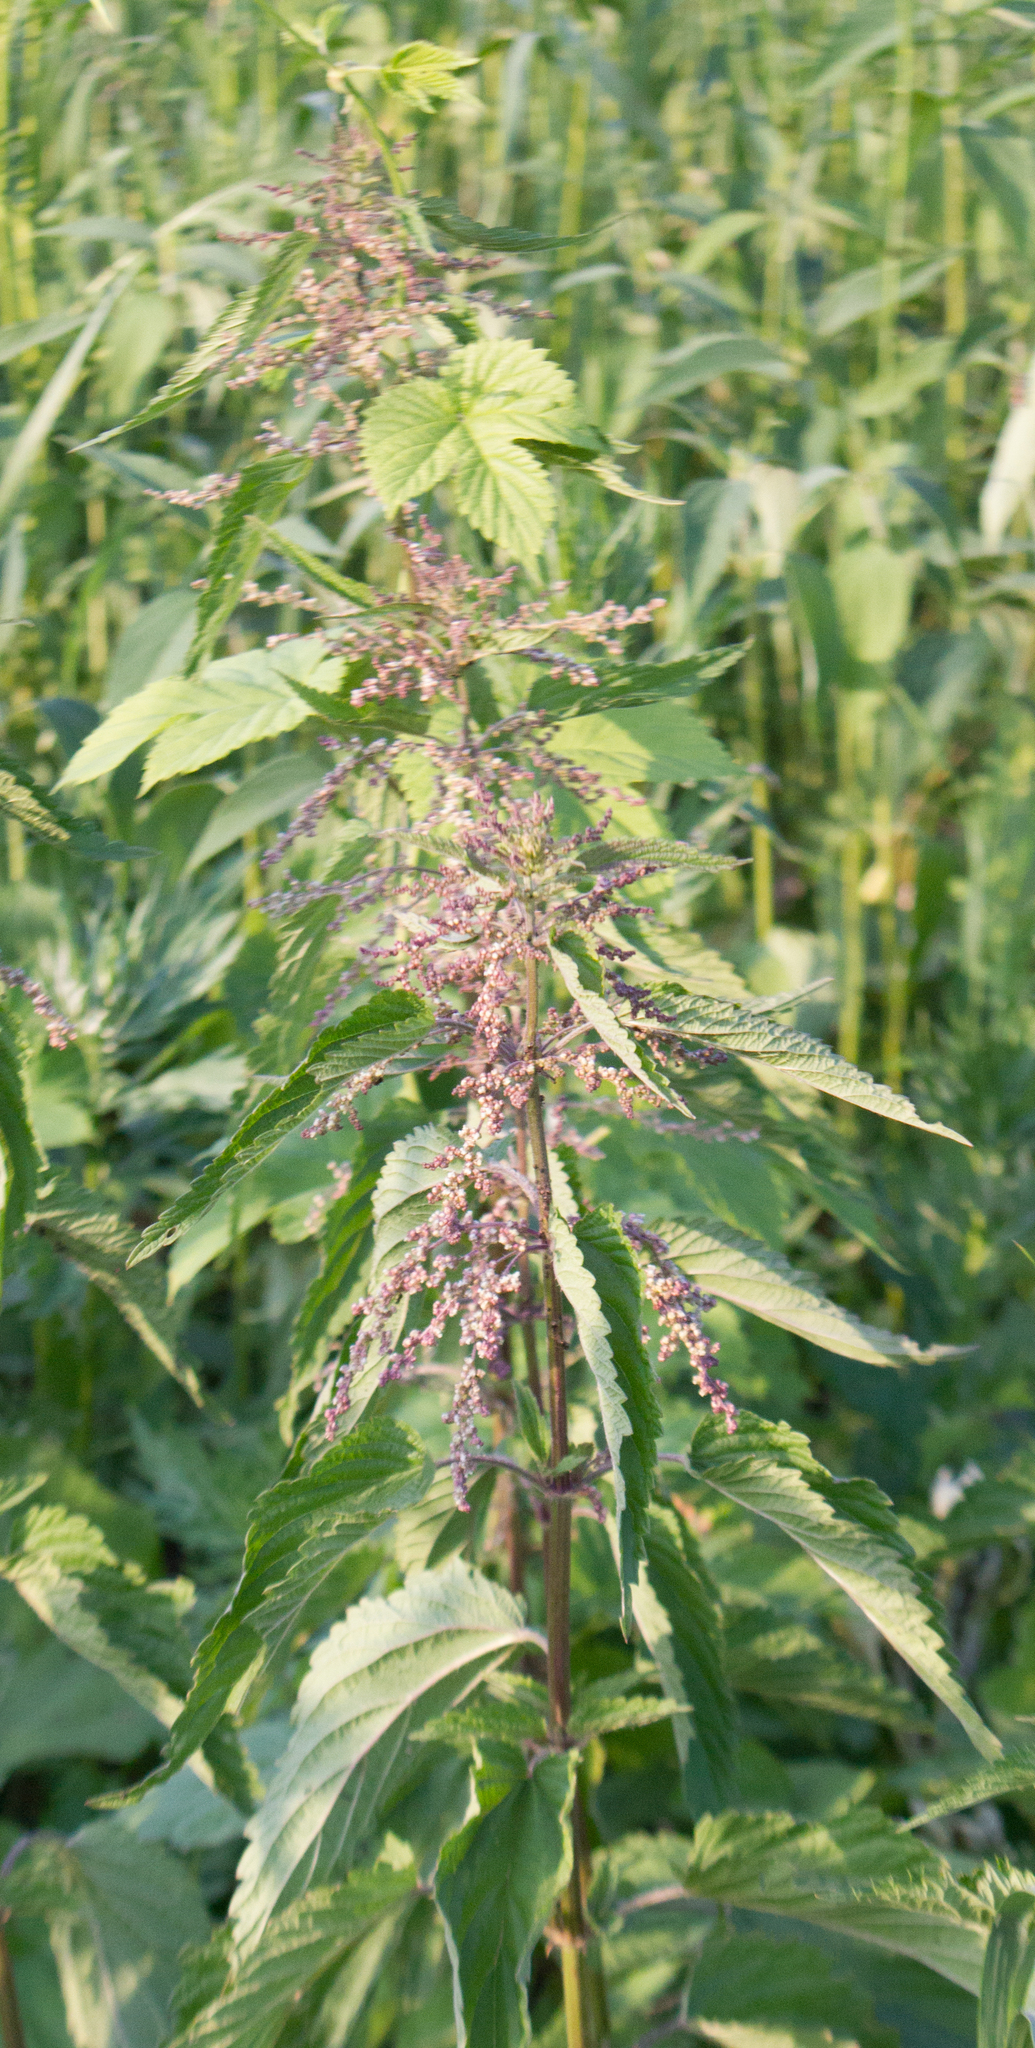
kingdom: Plantae
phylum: Tracheophyta
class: Magnoliopsida
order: Rosales
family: Urticaceae
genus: Urtica
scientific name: Urtica dioica
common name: Common nettle
